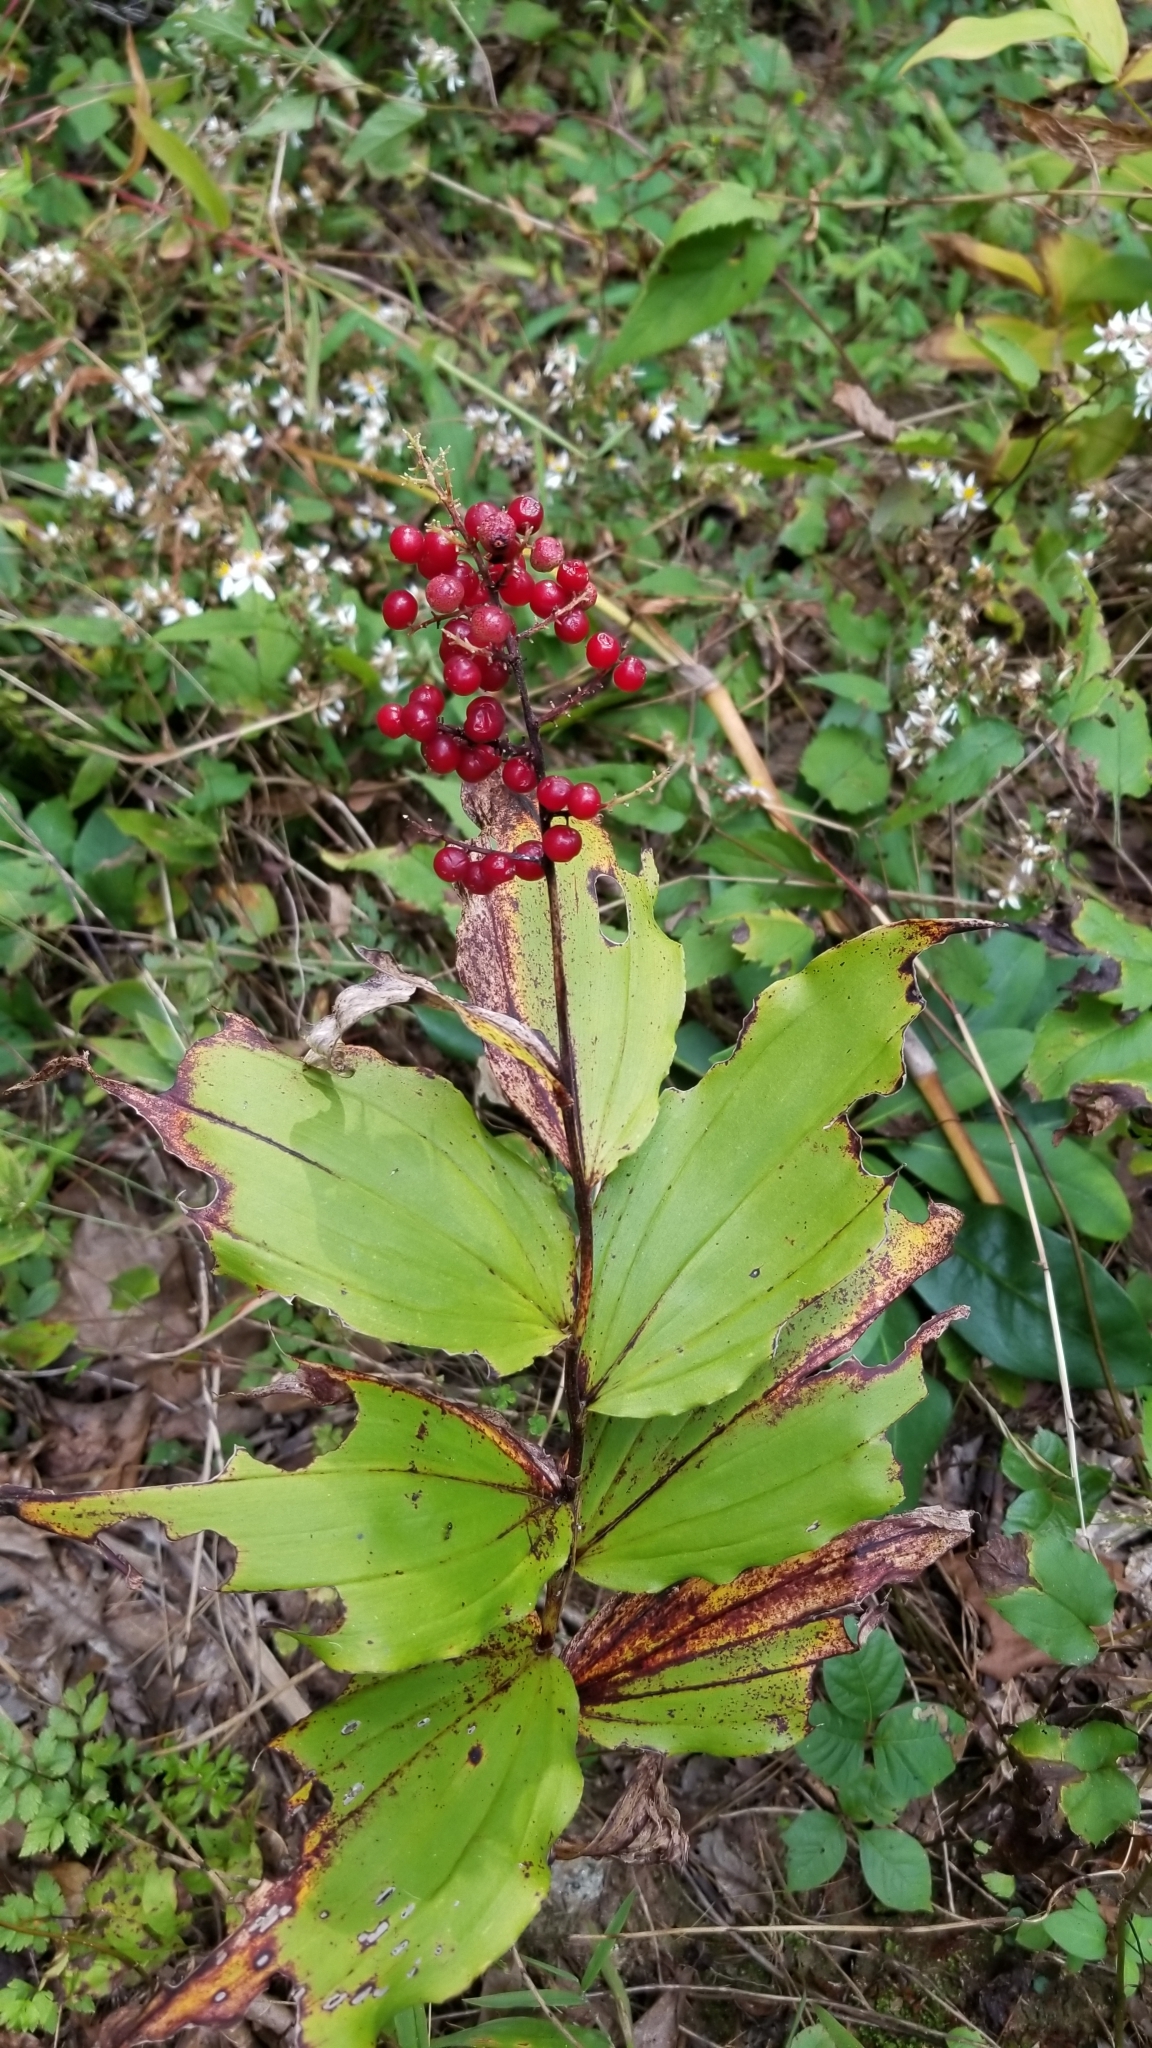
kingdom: Plantae
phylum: Tracheophyta
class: Liliopsida
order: Asparagales
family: Asparagaceae
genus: Maianthemum
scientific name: Maianthemum racemosum
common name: False spikenard
